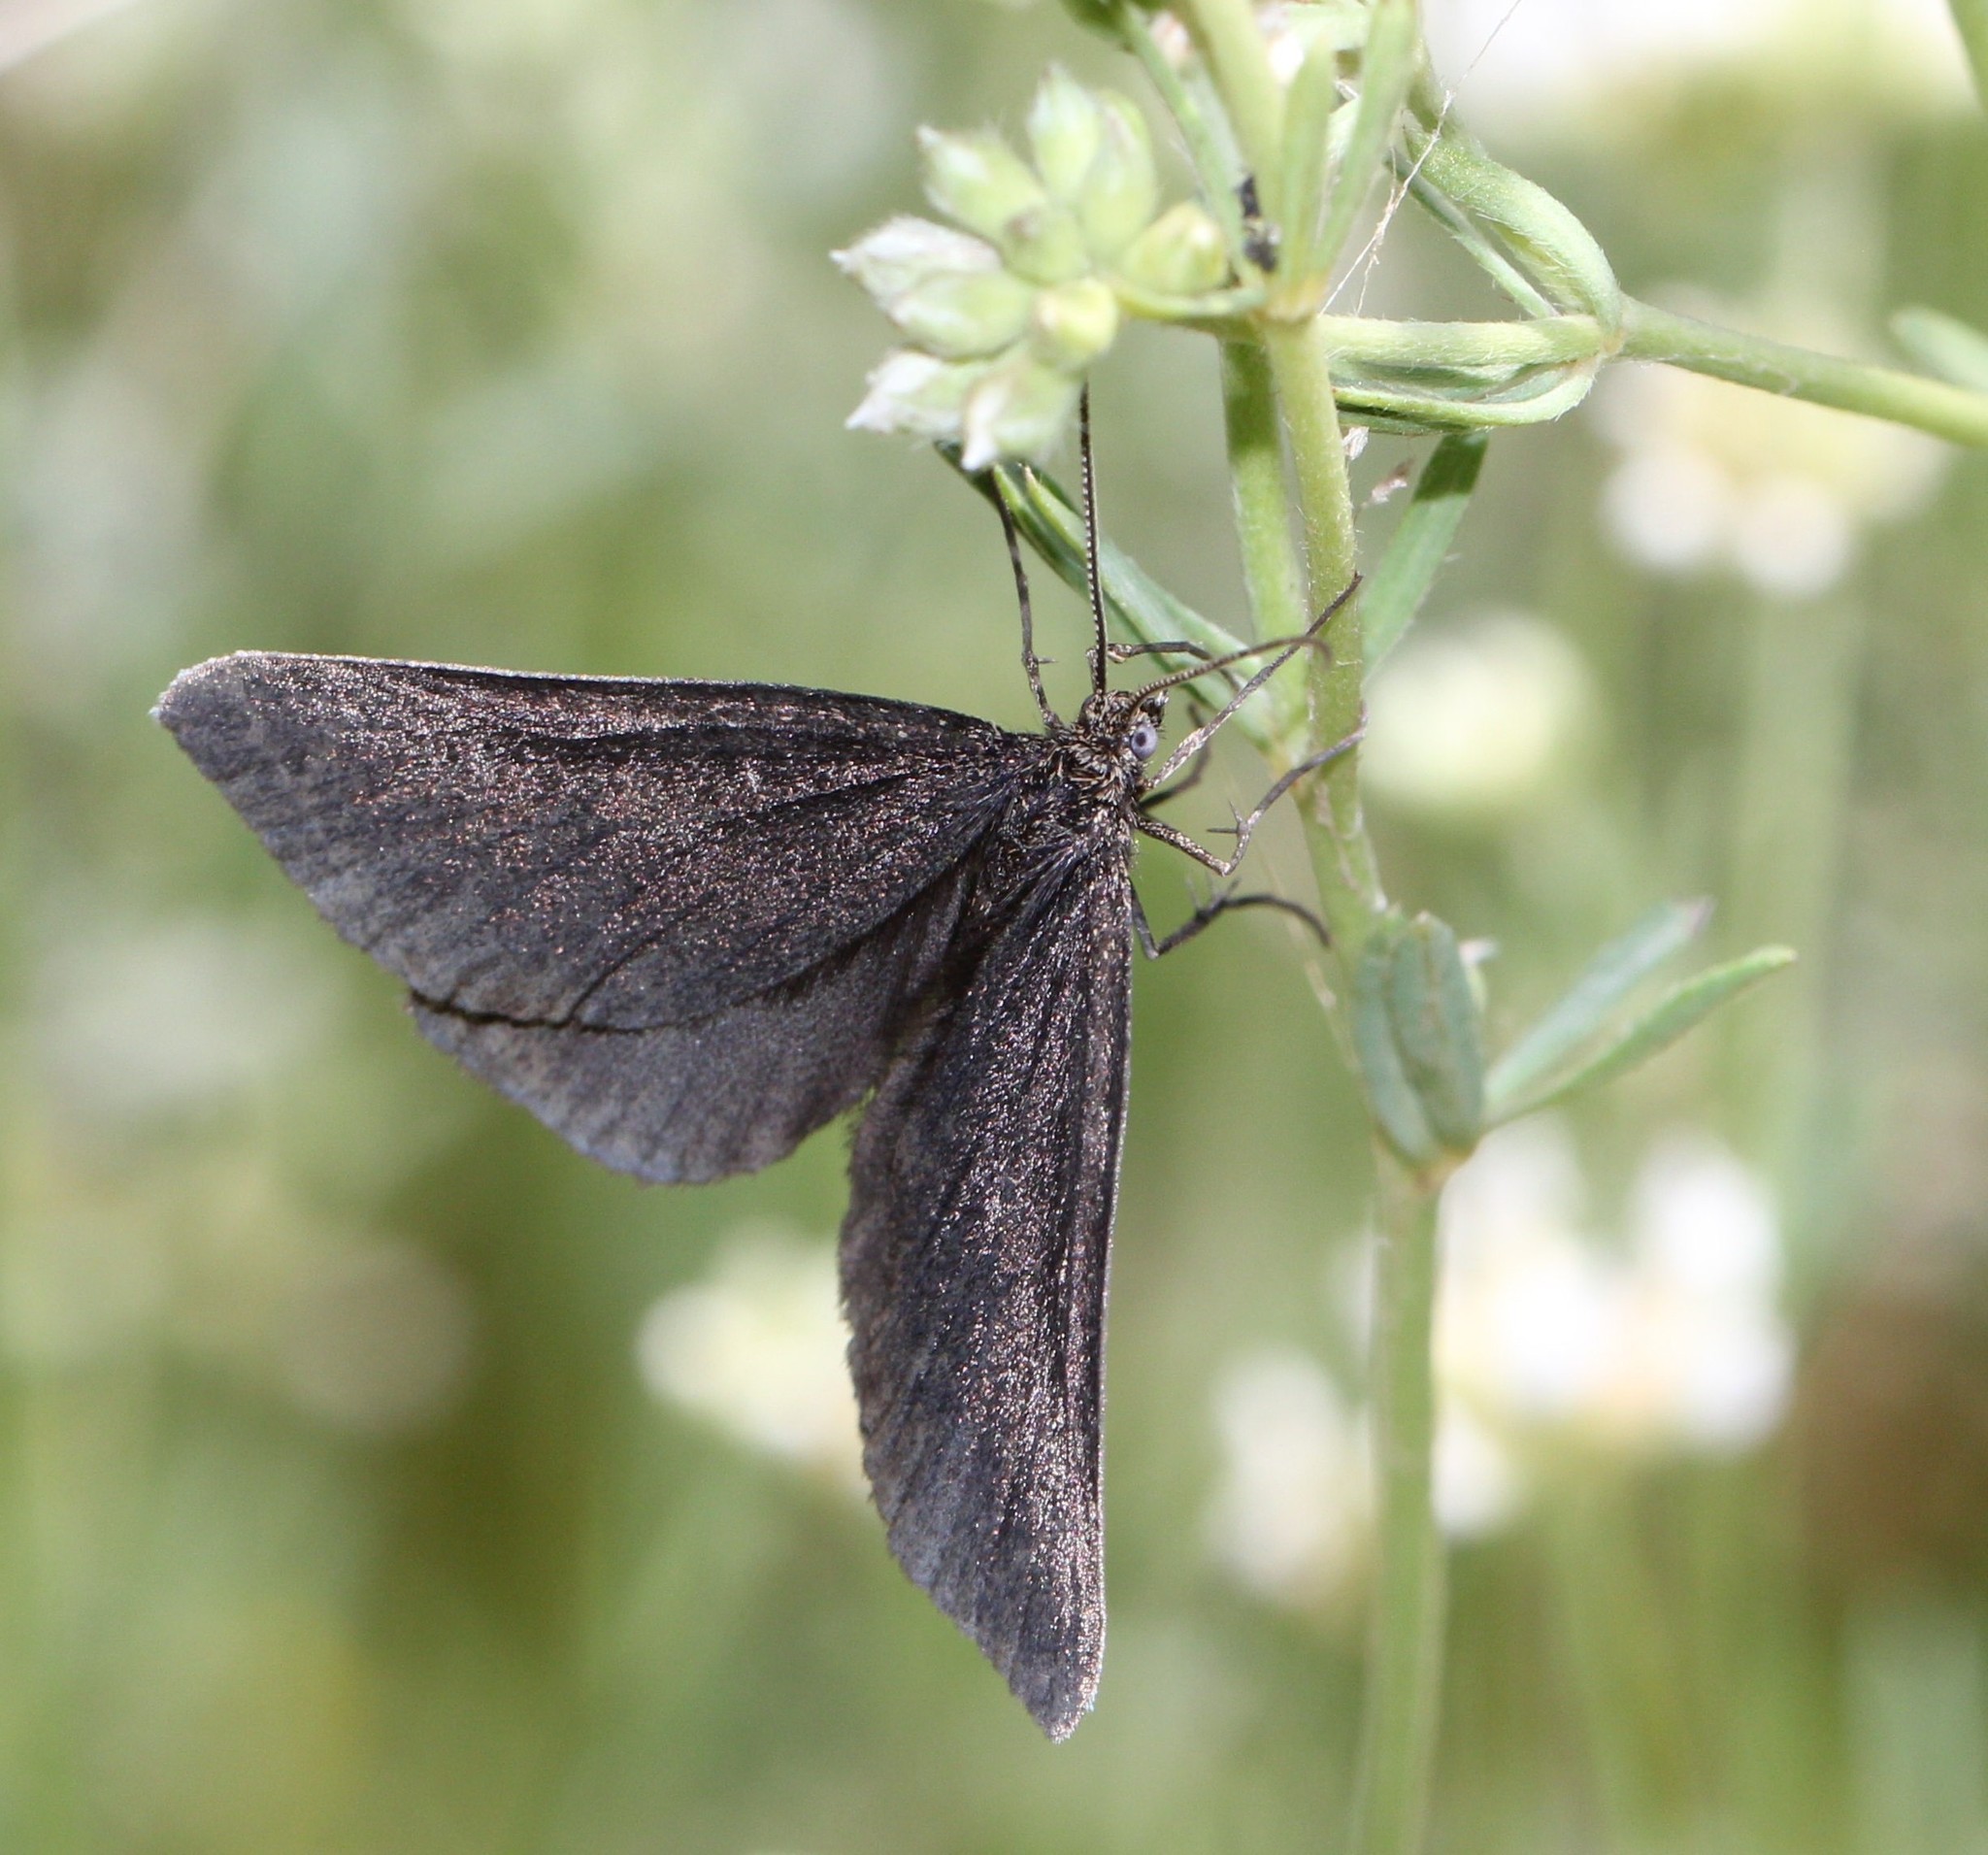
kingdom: Animalia
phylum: Arthropoda
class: Insecta
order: Lepidoptera
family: Geometridae
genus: Odezia
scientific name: Odezia atrata
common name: Chimney sweeper
